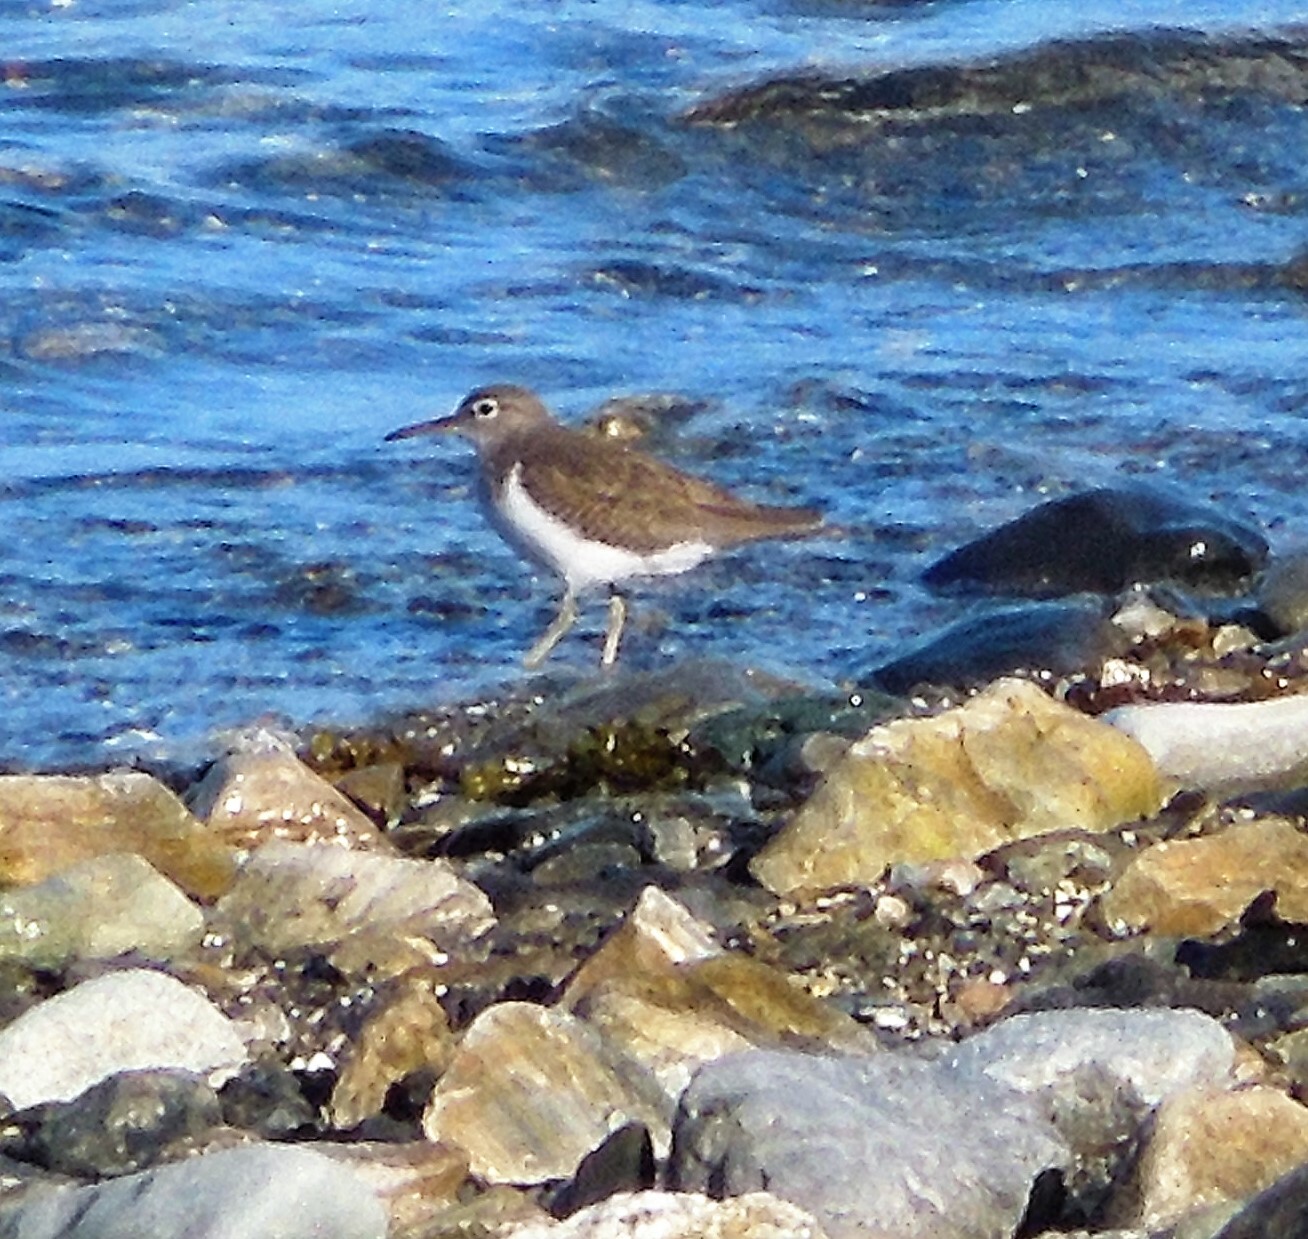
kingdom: Animalia
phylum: Chordata
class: Aves
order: Charadriiformes
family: Scolopacidae
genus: Actitis
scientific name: Actitis macularius
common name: Spotted sandpiper
